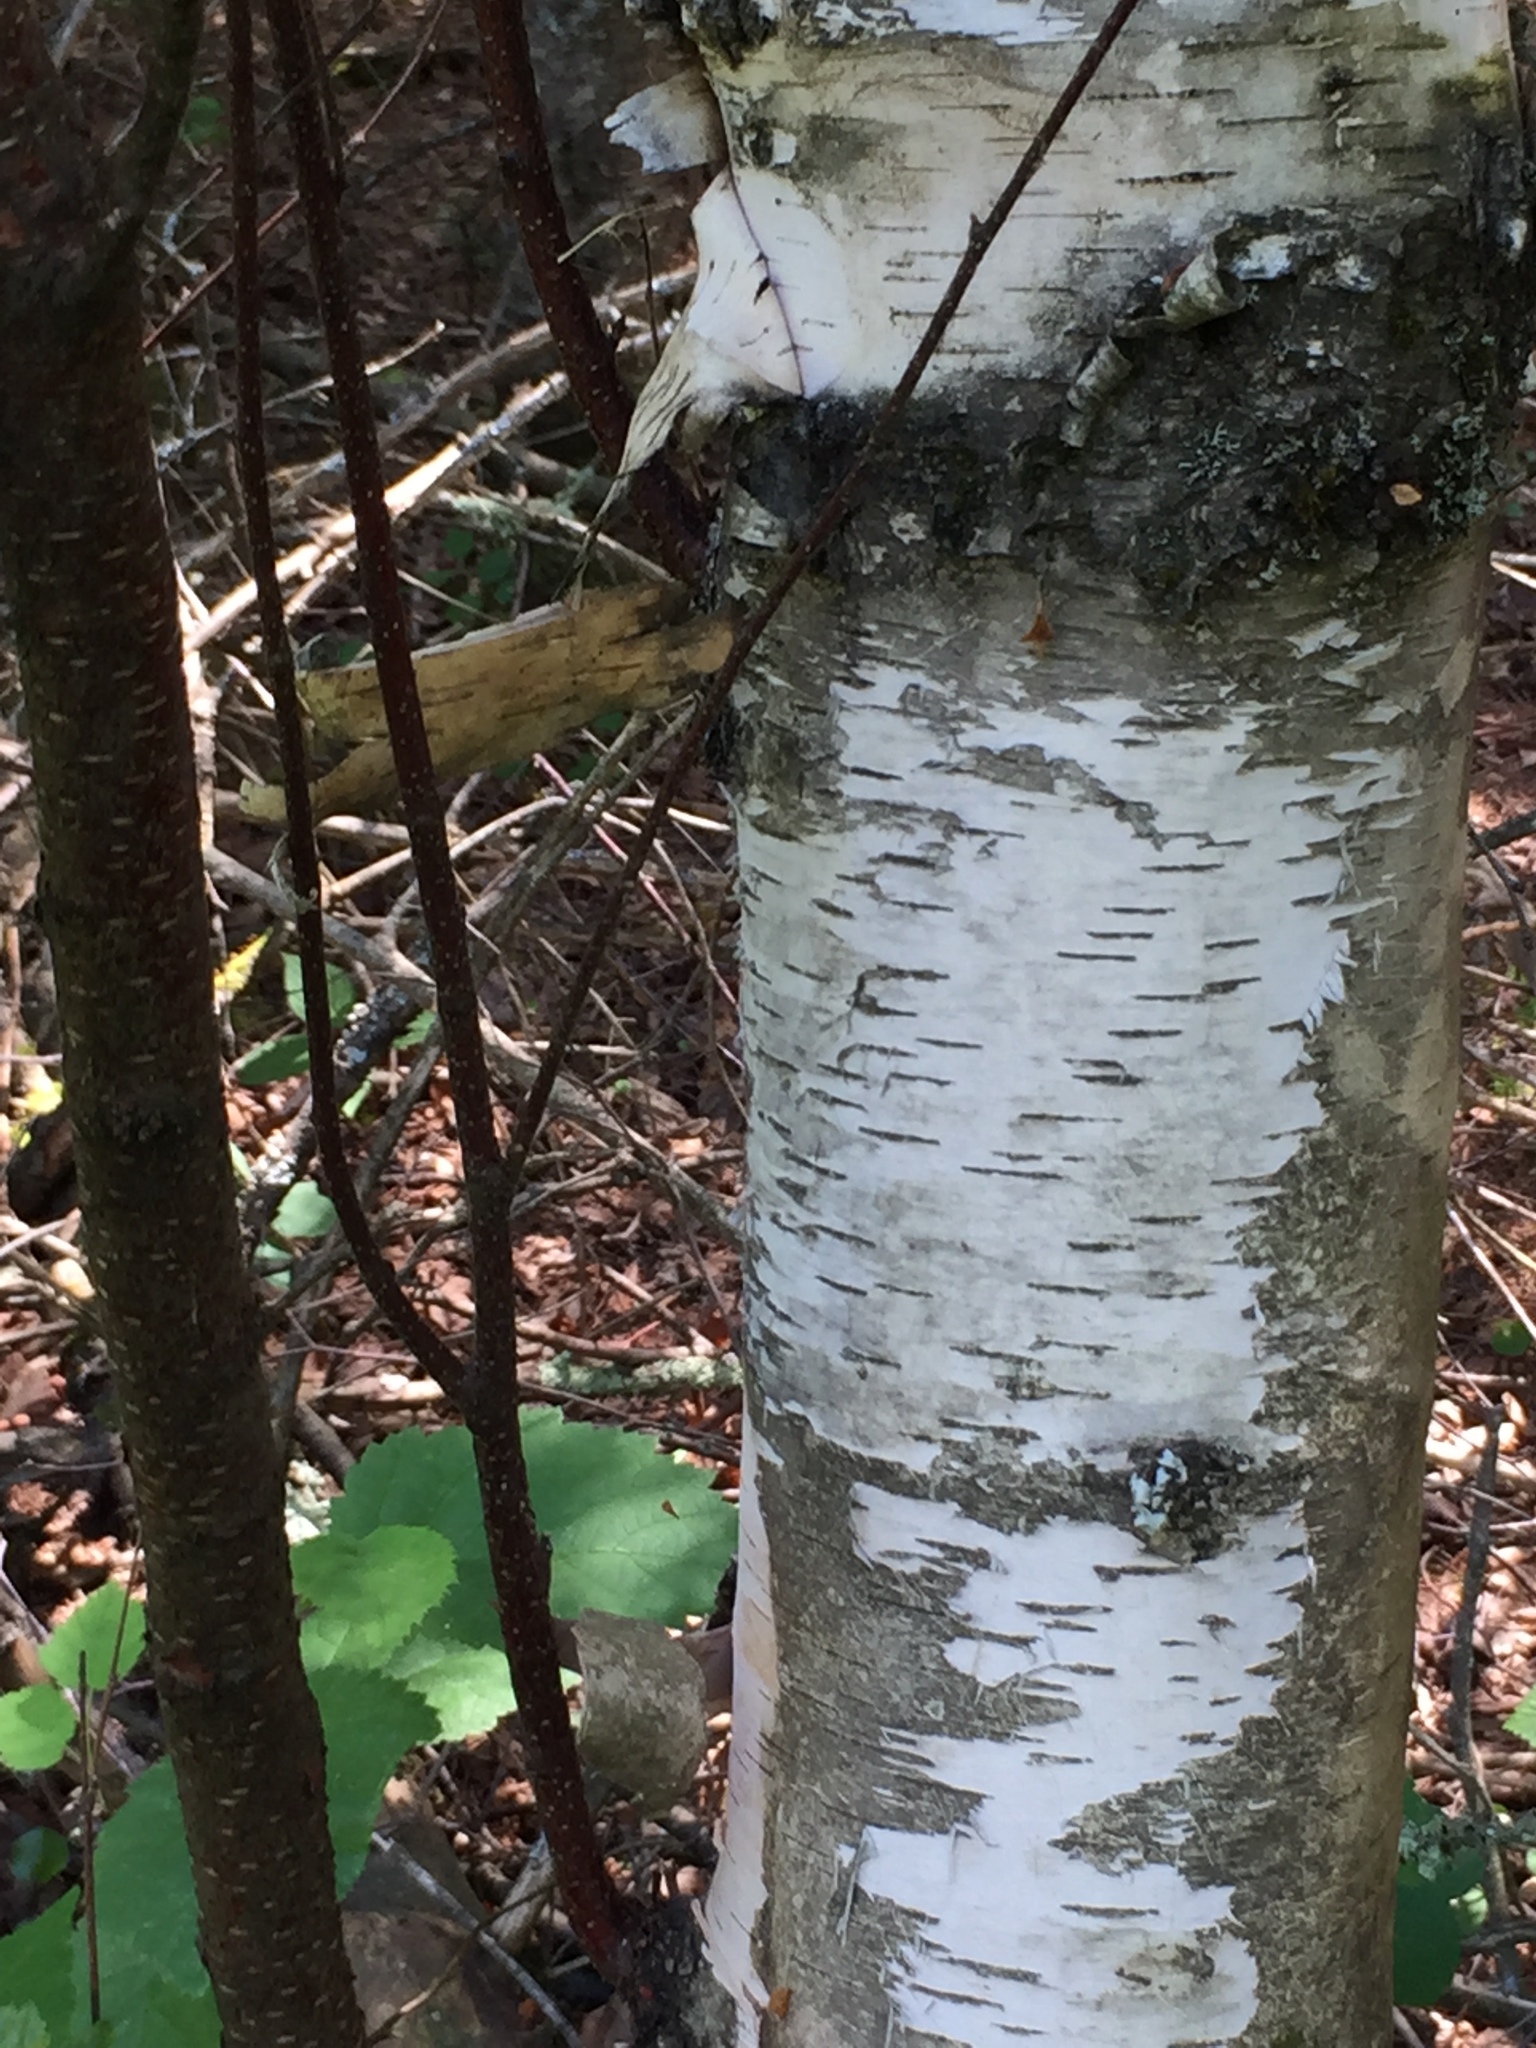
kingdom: Plantae
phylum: Tracheophyta
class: Magnoliopsida
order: Fagales
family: Betulaceae
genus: Betula
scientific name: Betula papyrifera
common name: Paper birch
